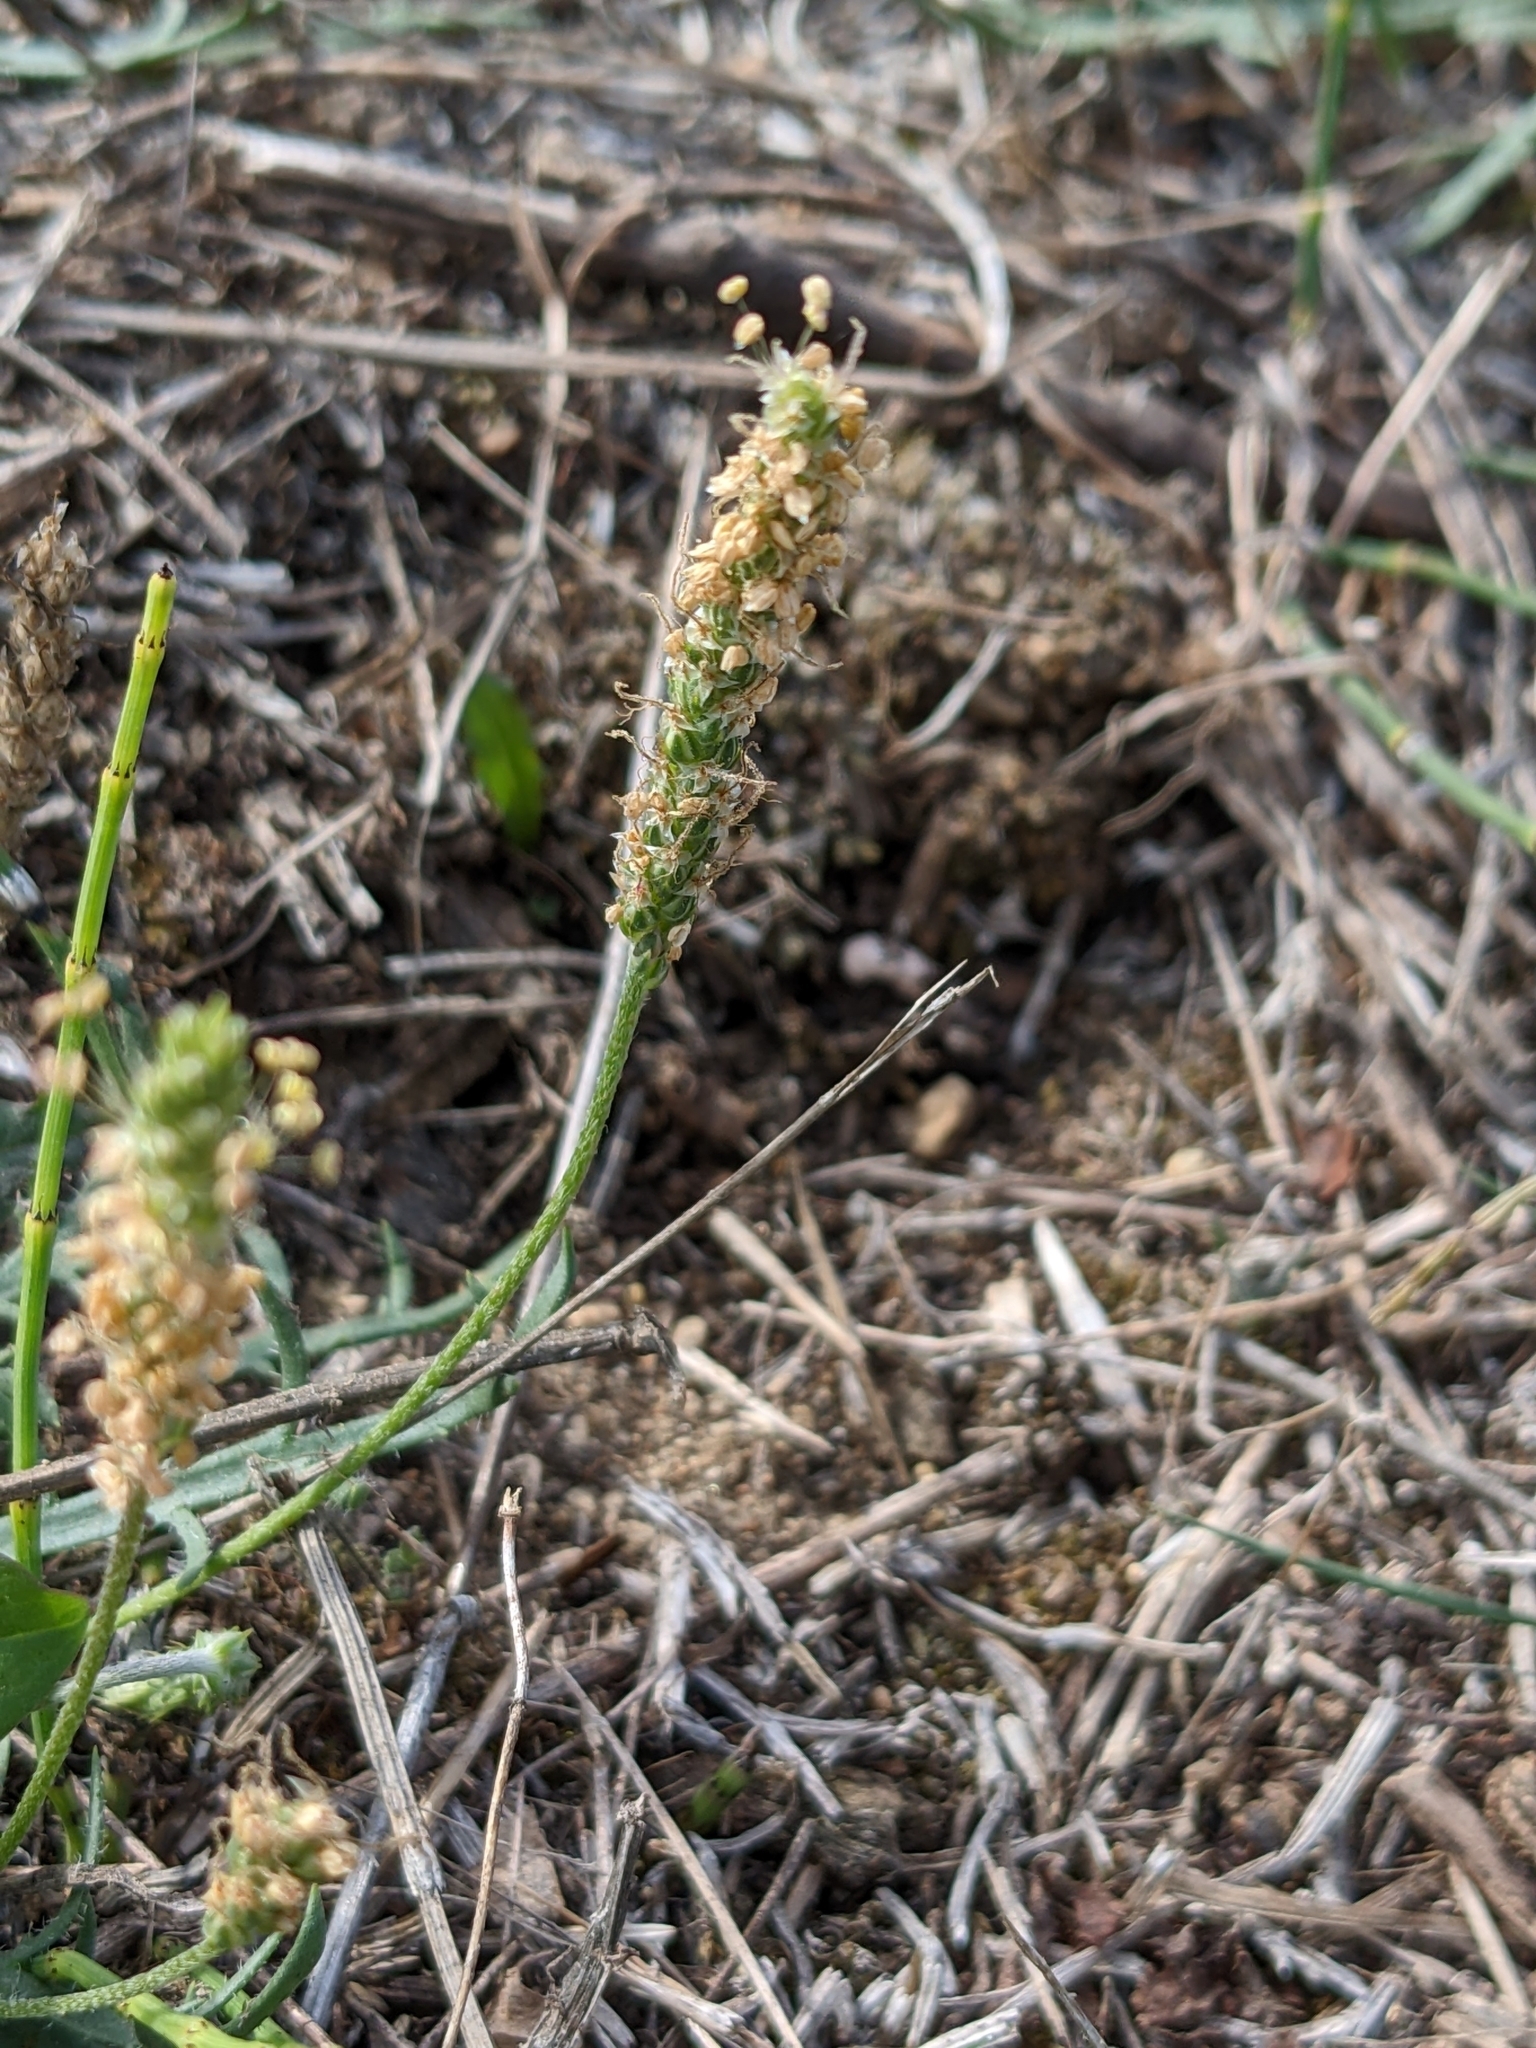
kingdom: Plantae
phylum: Tracheophyta
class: Magnoliopsida
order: Lamiales
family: Plantaginaceae
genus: Plantago
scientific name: Plantago coronopus
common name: Buck's-horn plantain
